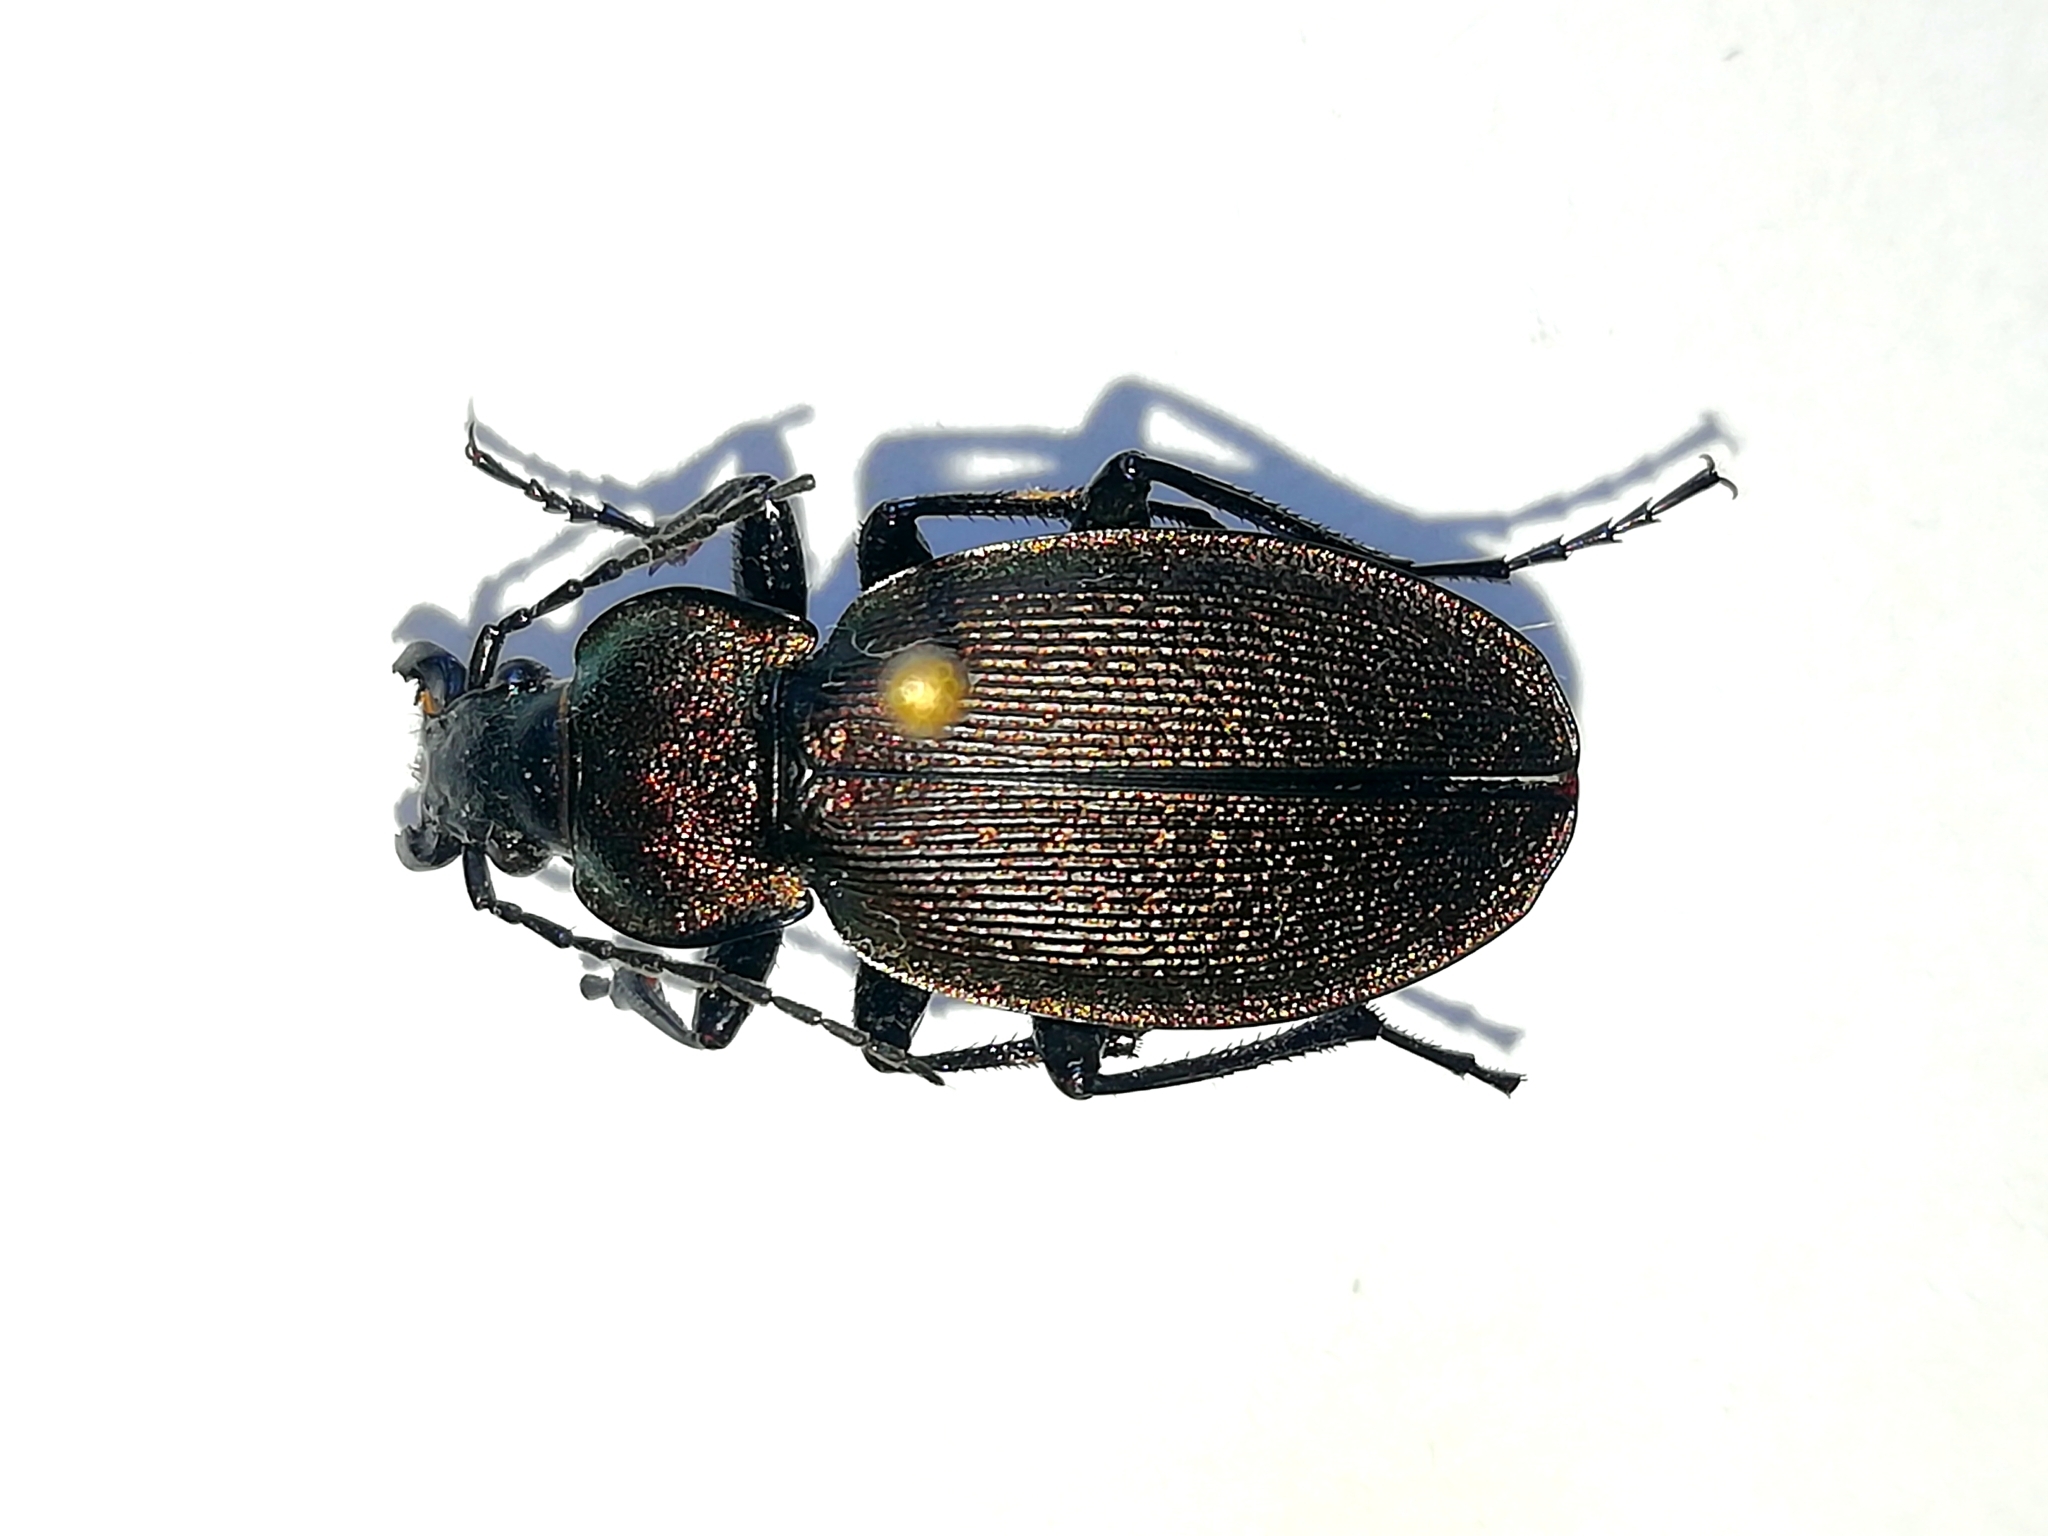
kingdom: Animalia
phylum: Arthropoda
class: Insecta
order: Coleoptera
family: Carabidae
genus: Carabus
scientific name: Carabus regalis
